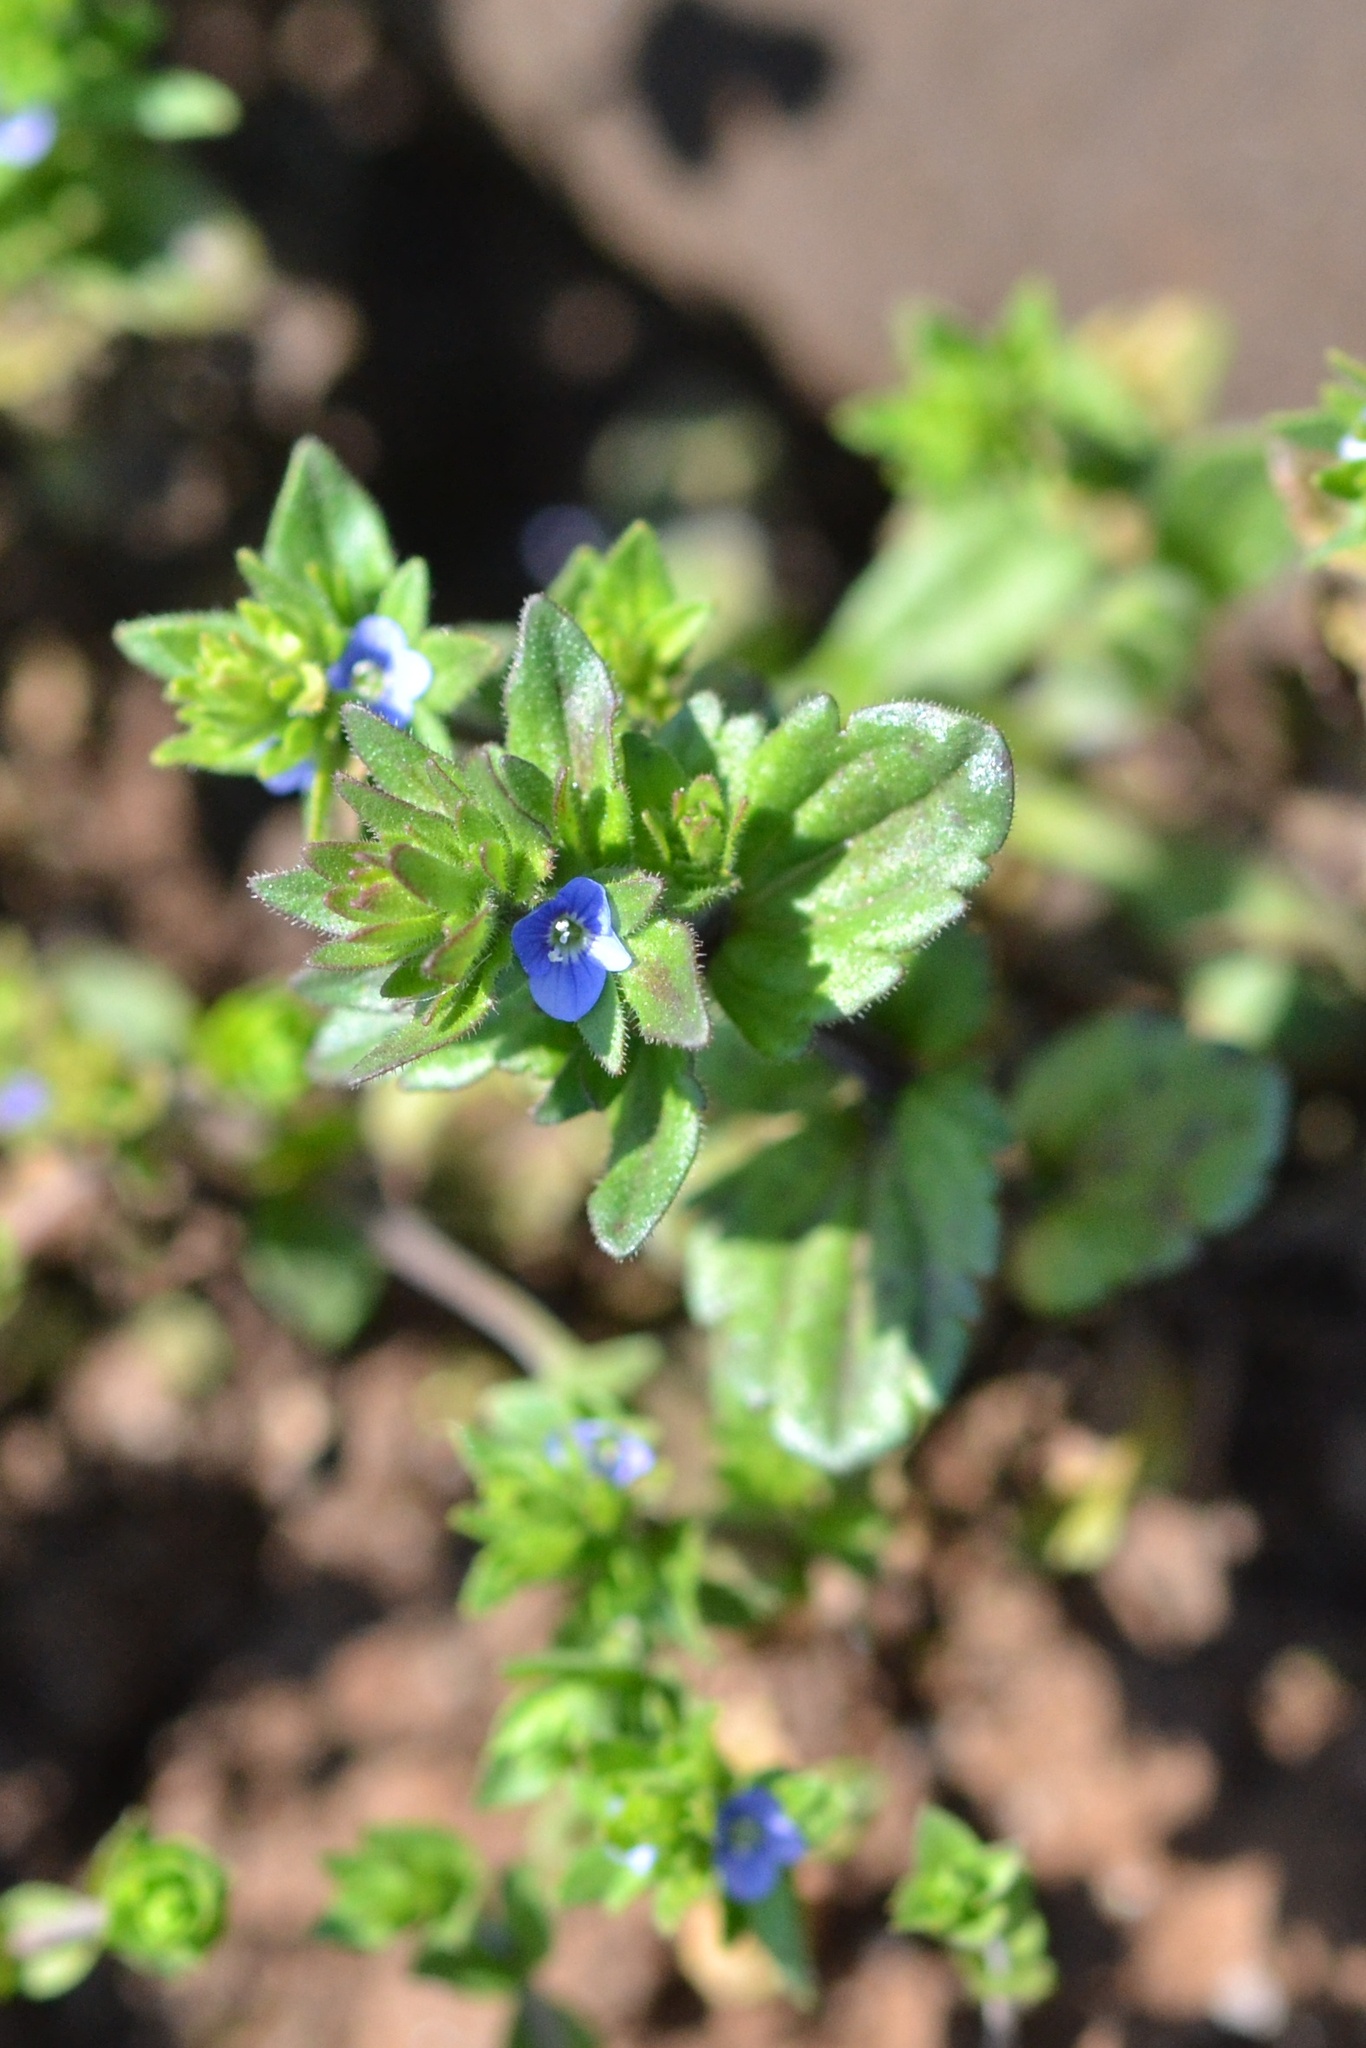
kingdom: Plantae
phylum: Tracheophyta
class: Magnoliopsida
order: Lamiales
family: Plantaginaceae
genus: Veronica
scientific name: Veronica arvensis
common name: Corn speedwell
